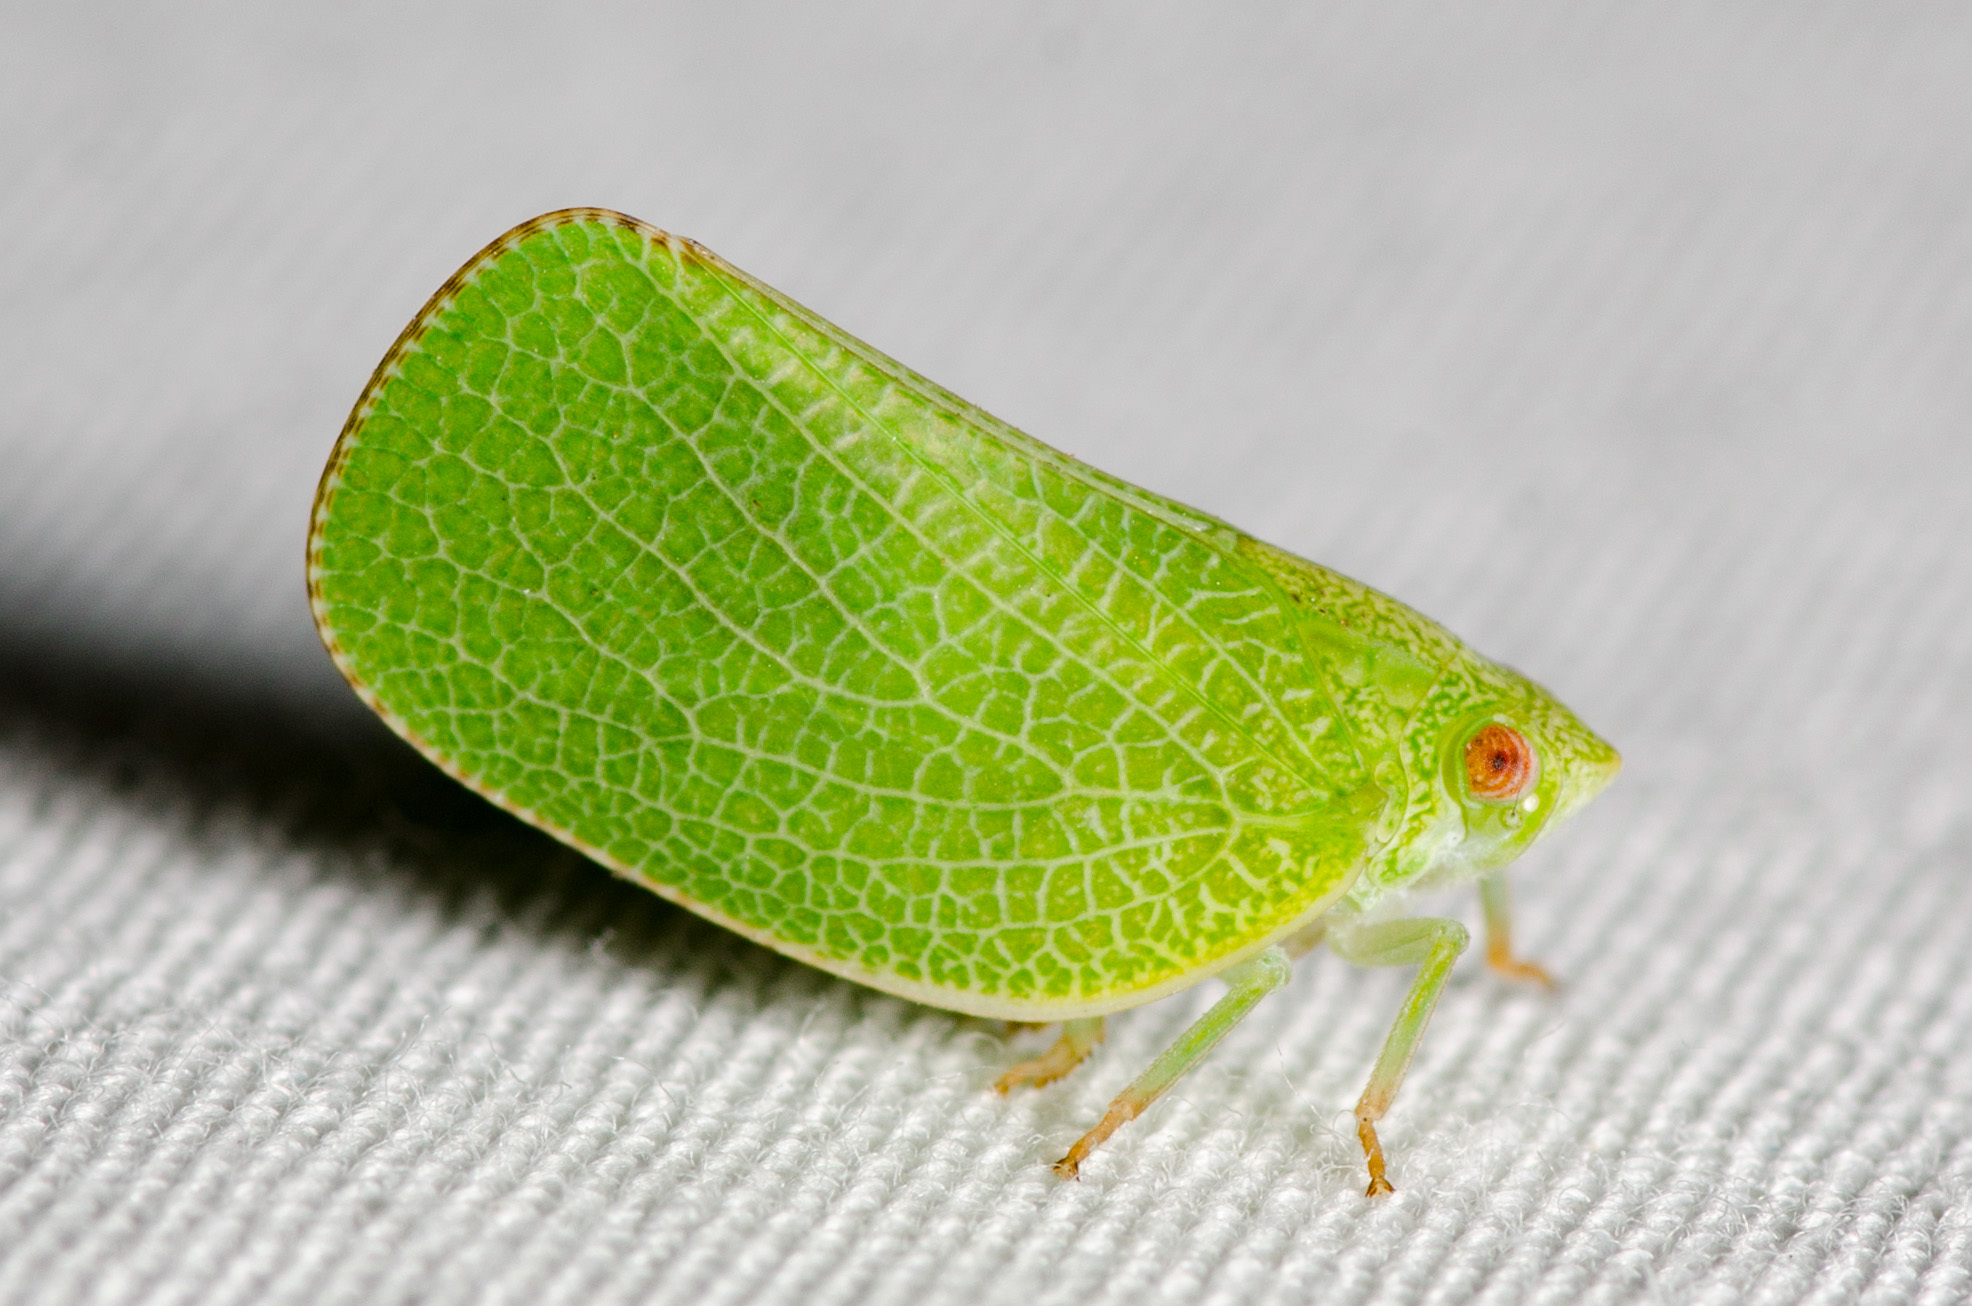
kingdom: Animalia
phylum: Arthropoda
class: Insecta
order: Hemiptera
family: Acanaloniidae
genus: Acanalonia
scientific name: Acanalonia conica
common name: Green cone-headed planthopper
